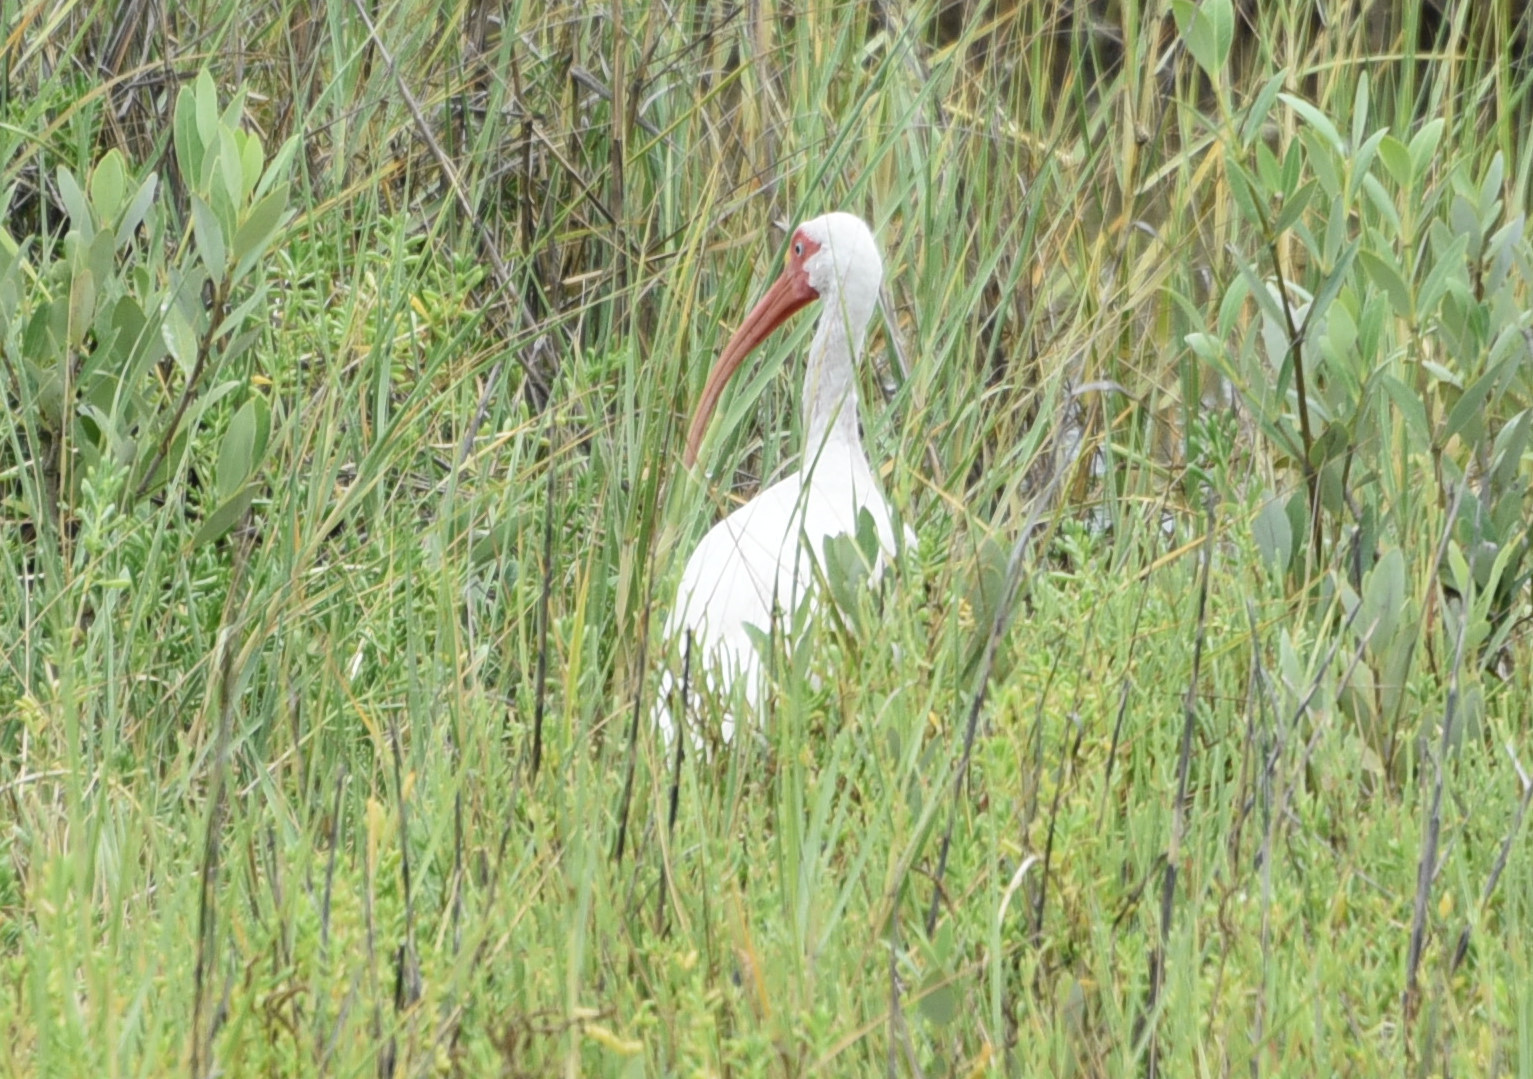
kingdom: Animalia
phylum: Chordata
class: Aves
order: Pelecaniformes
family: Threskiornithidae
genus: Eudocimus
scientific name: Eudocimus albus
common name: White ibis
